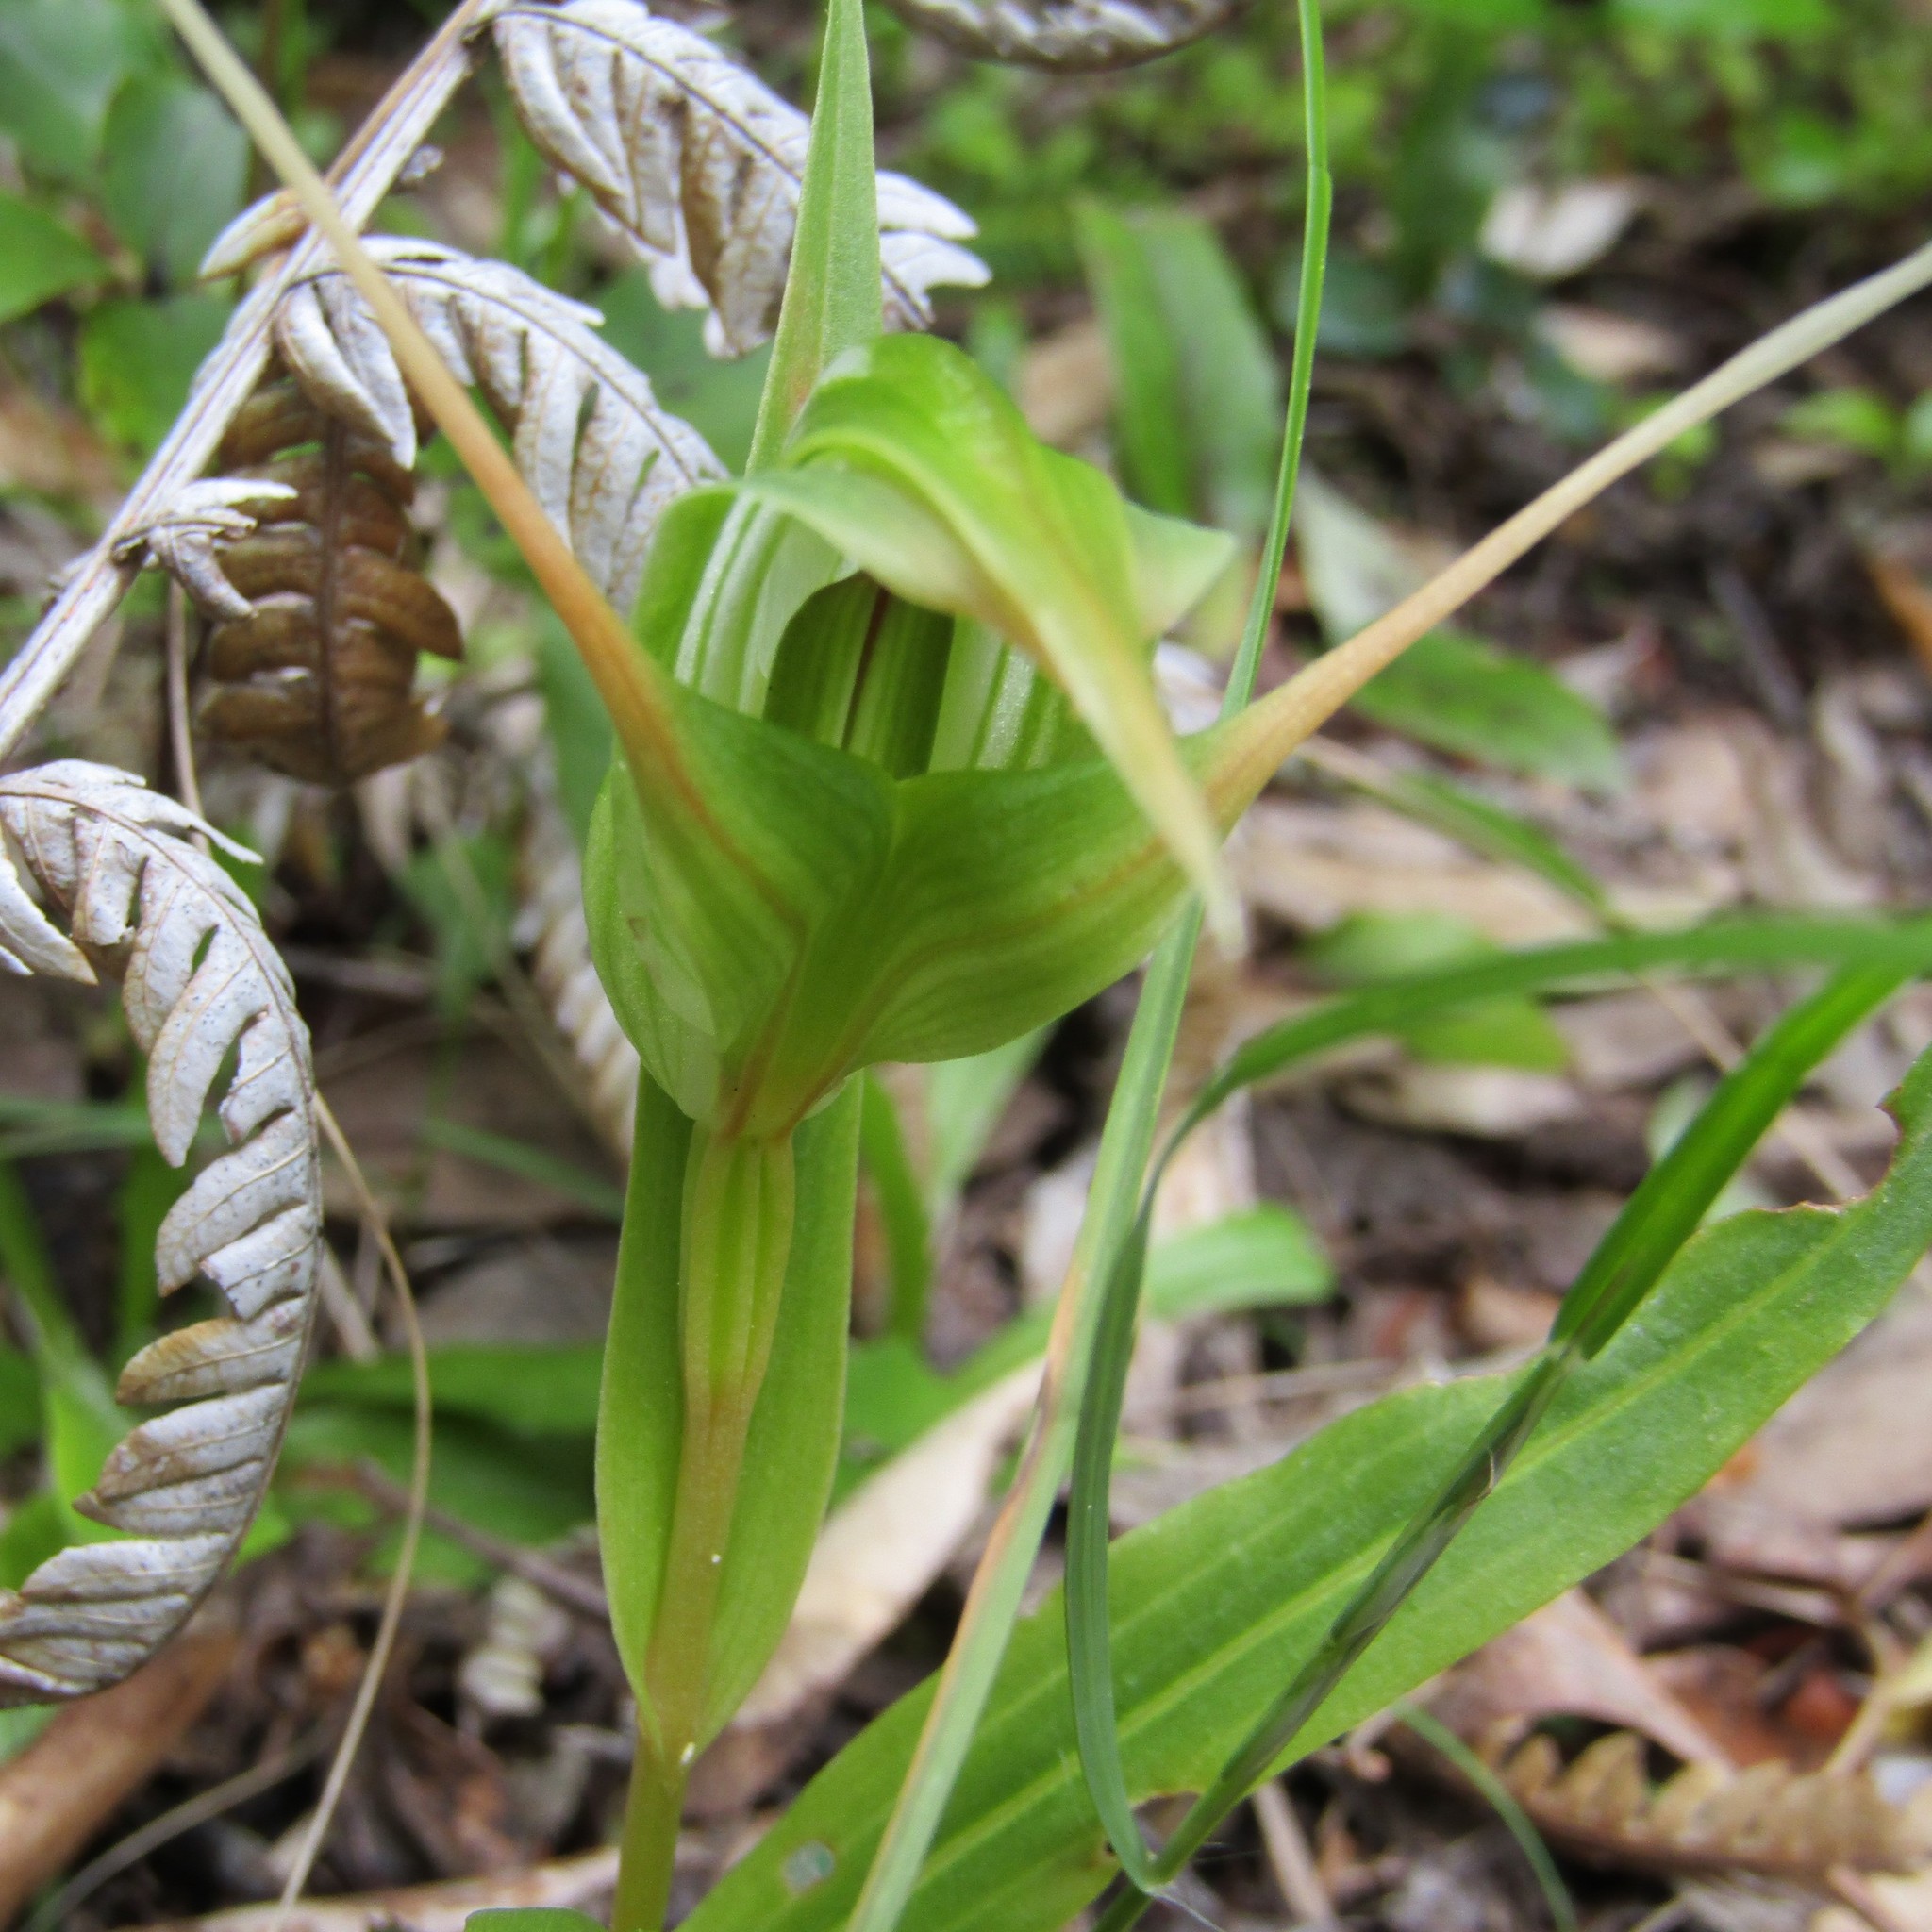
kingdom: Plantae
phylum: Tracheophyta
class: Liliopsida
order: Asparagales
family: Orchidaceae
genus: Pterostylis
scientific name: Pterostylis banksii
